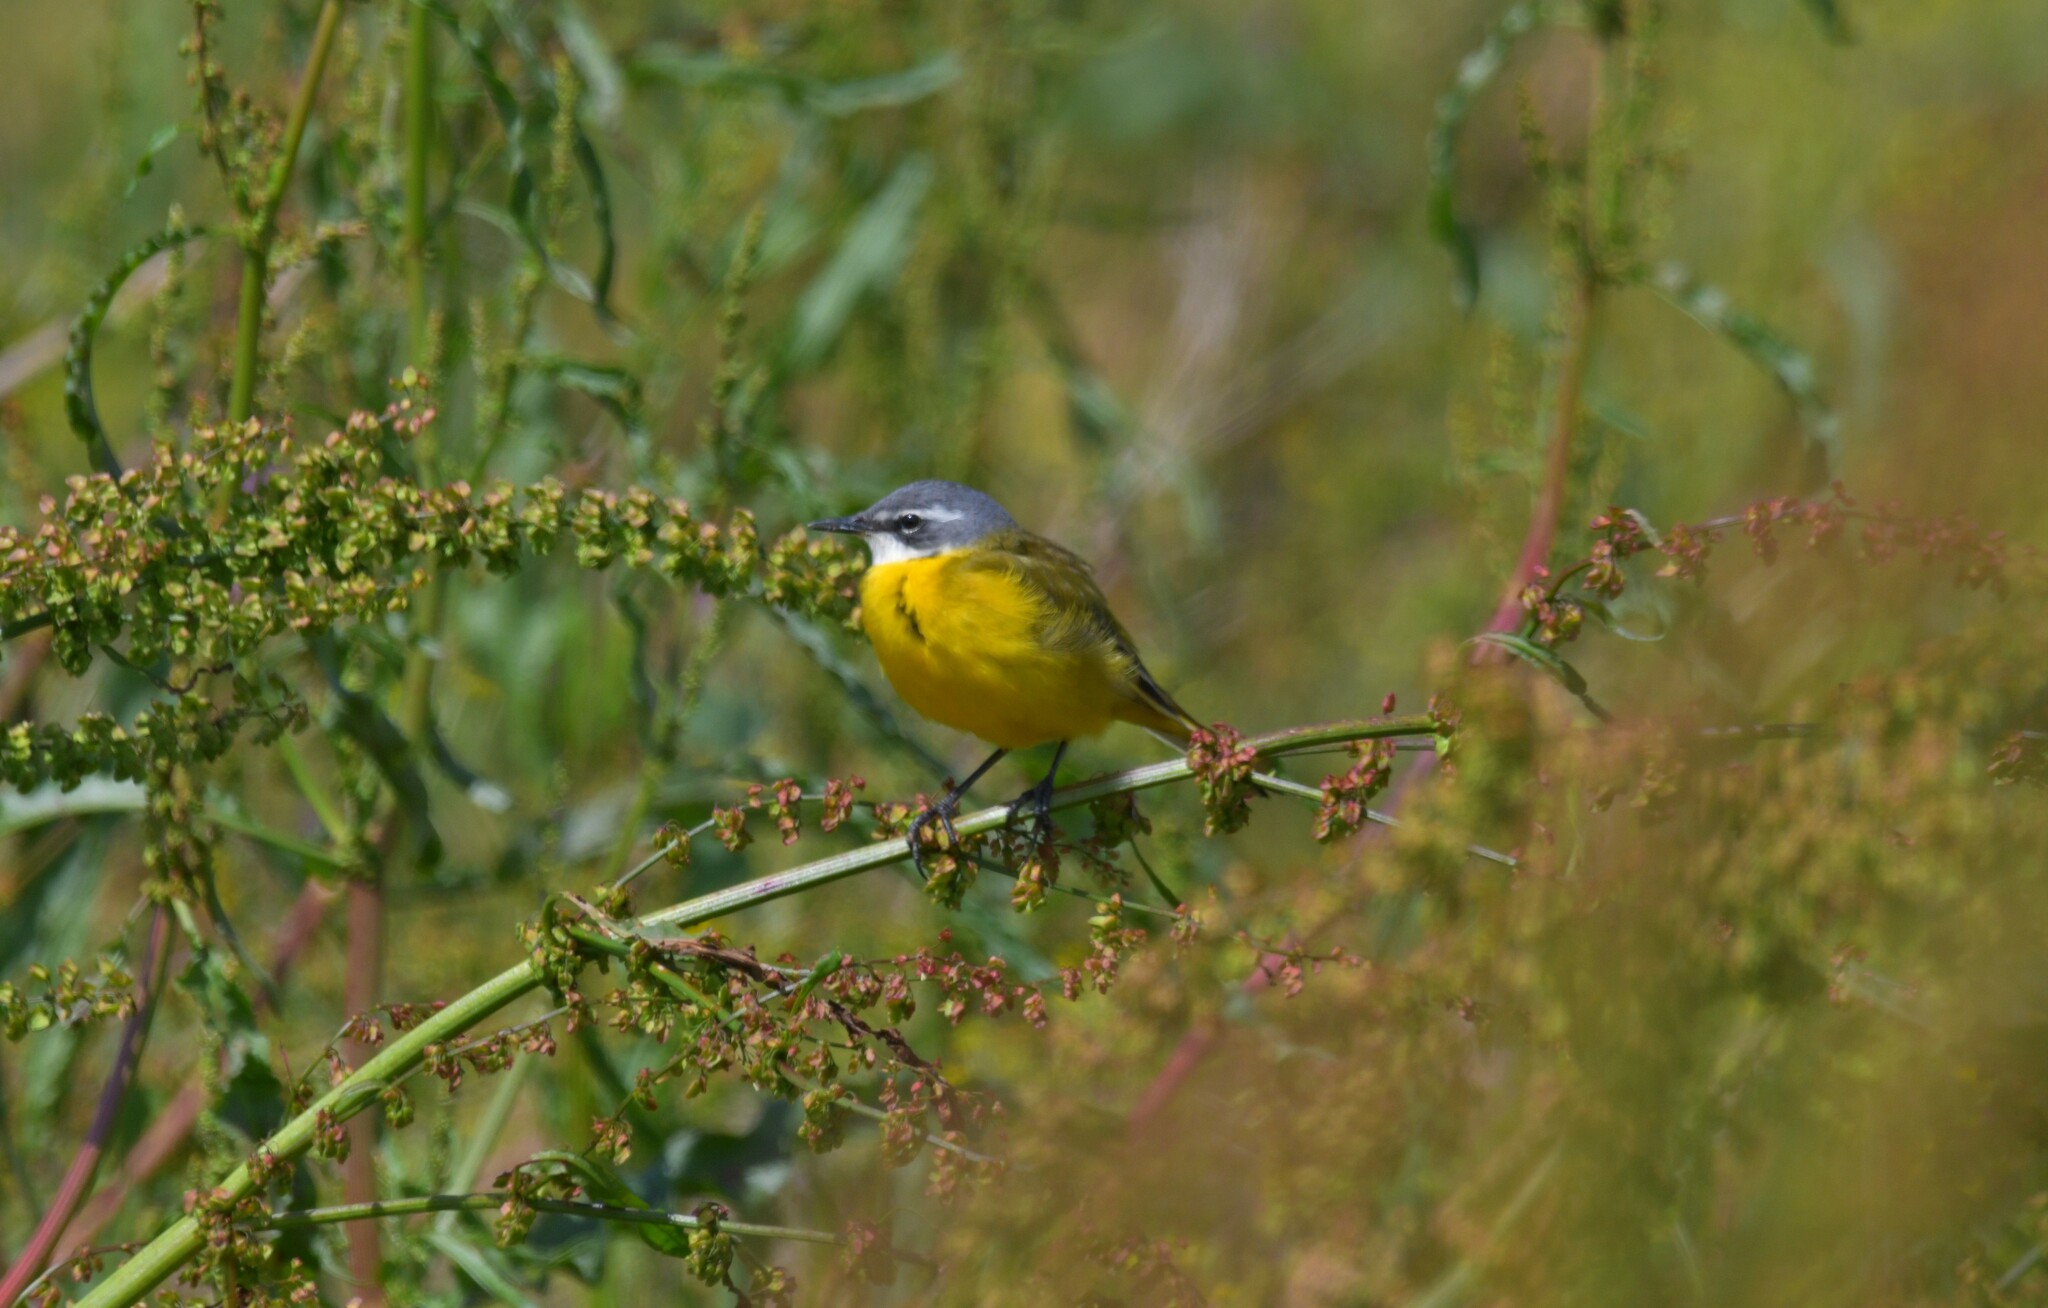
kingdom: Animalia
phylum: Chordata
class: Aves
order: Passeriformes
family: Motacillidae
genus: Motacilla
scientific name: Motacilla flava
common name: Western yellow wagtail
